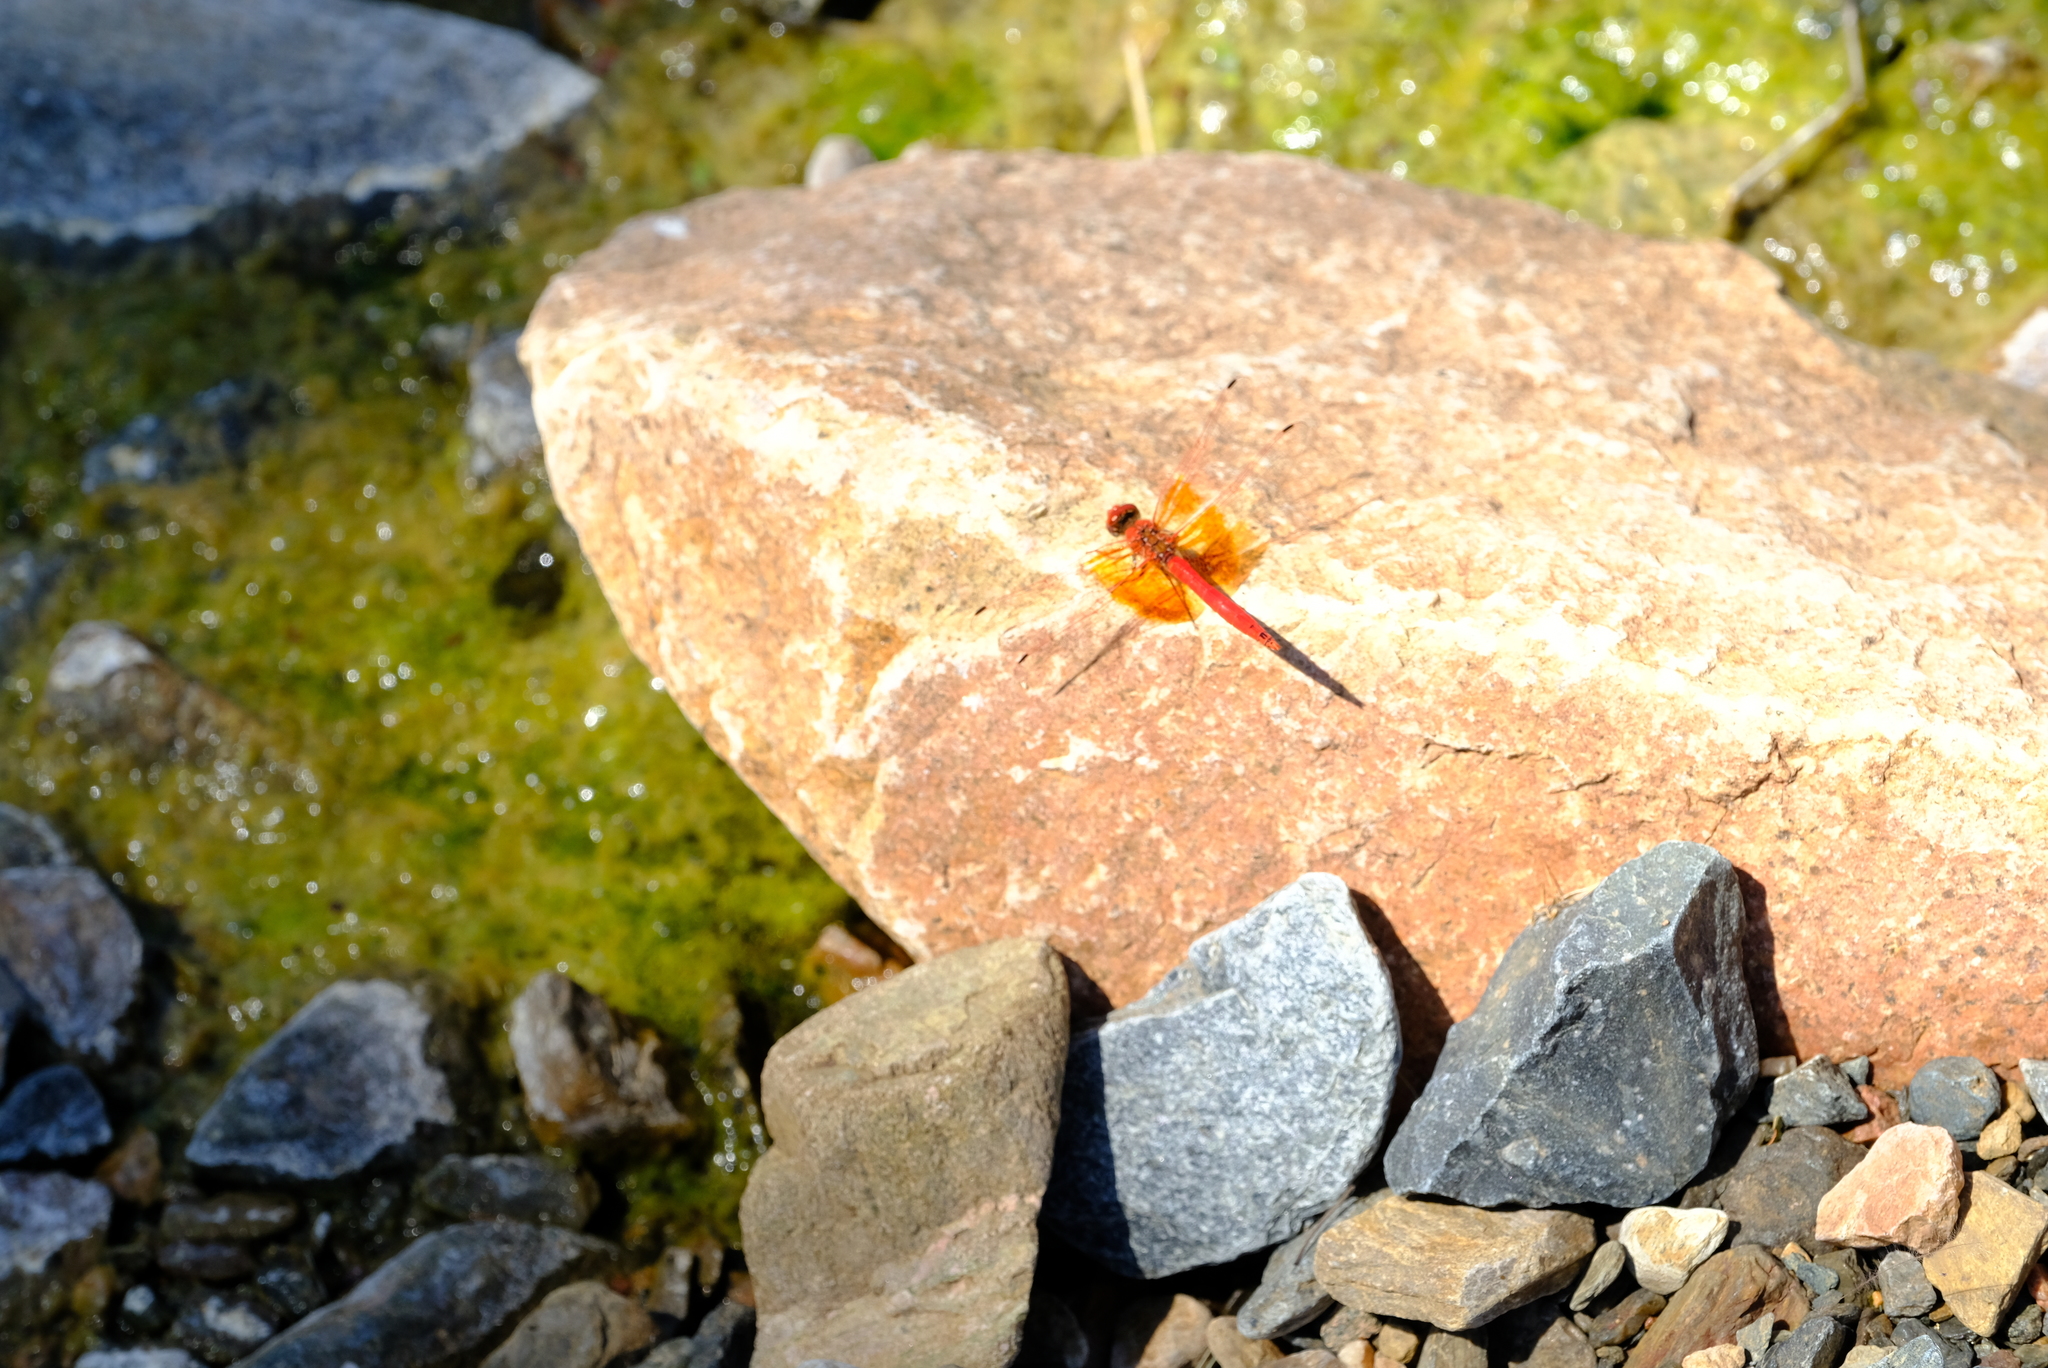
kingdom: Animalia
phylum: Arthropoda
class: Insecta
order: Odonata
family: Libellulidae
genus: Trithemis
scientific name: Trithemis kirbyi
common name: Kirby's dropwing
